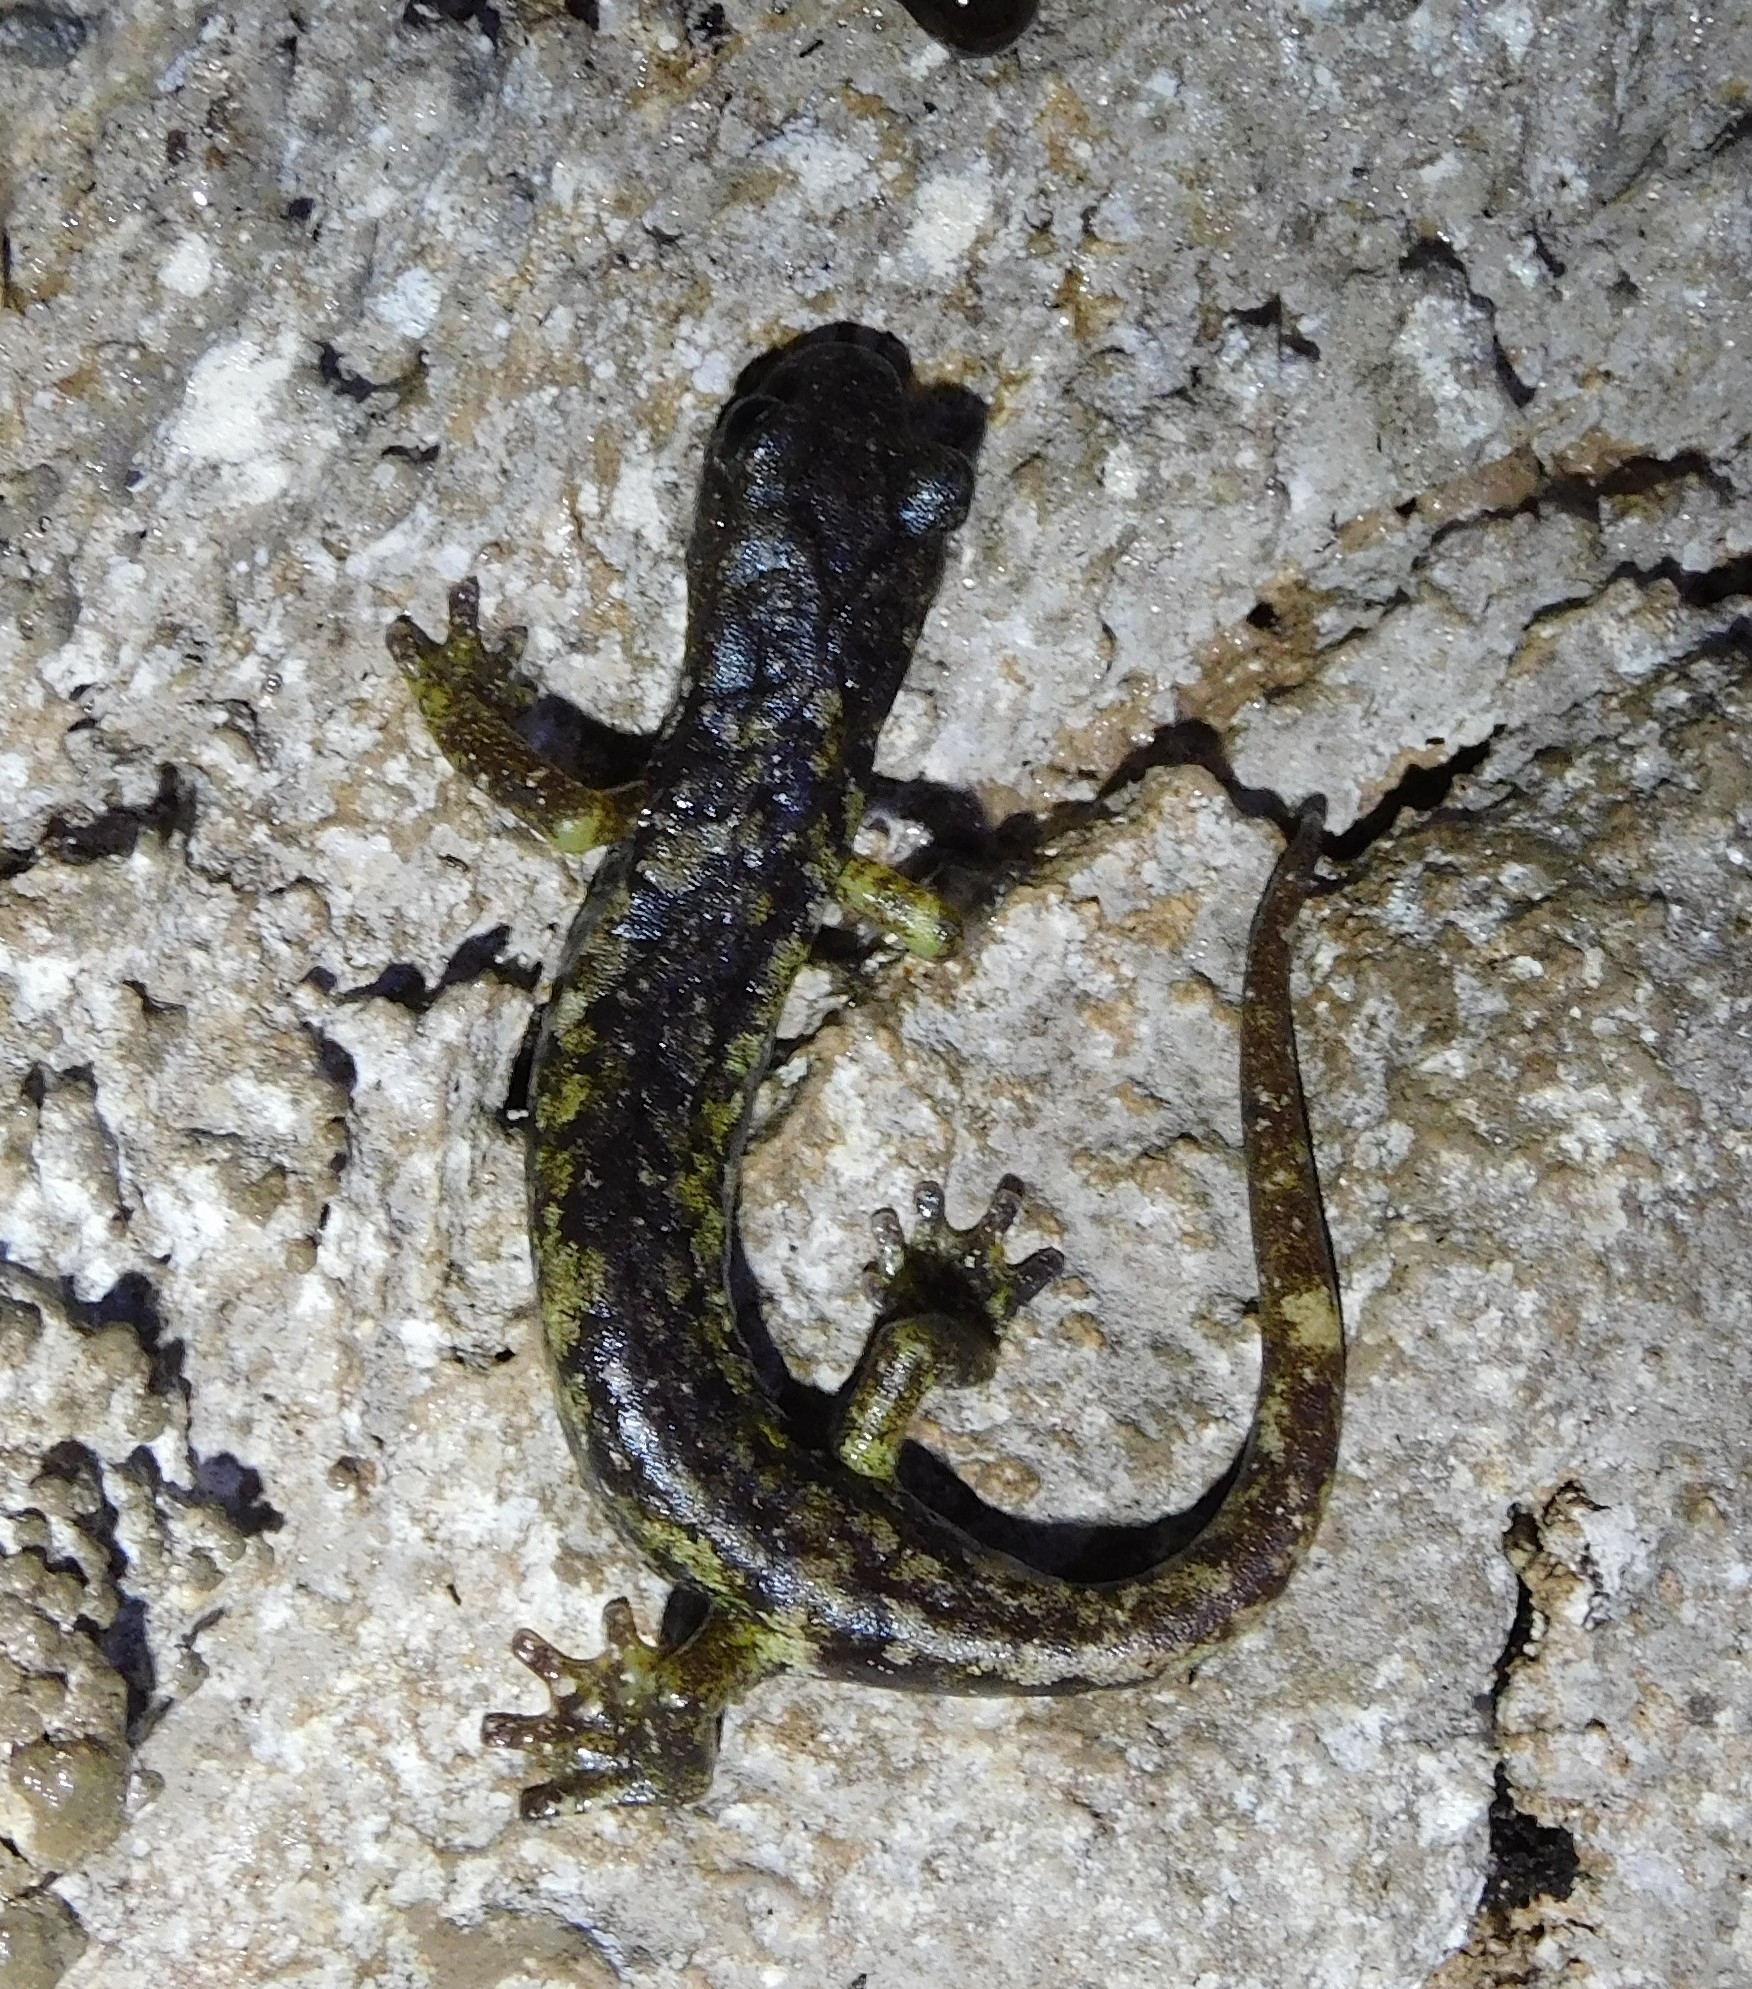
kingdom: Animalia
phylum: Chordata
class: Amphibia
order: Caudata
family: Plethodontidae
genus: Speleomantes
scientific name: Speleomantes ambrosii
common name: Ambrosi's cave salamander
